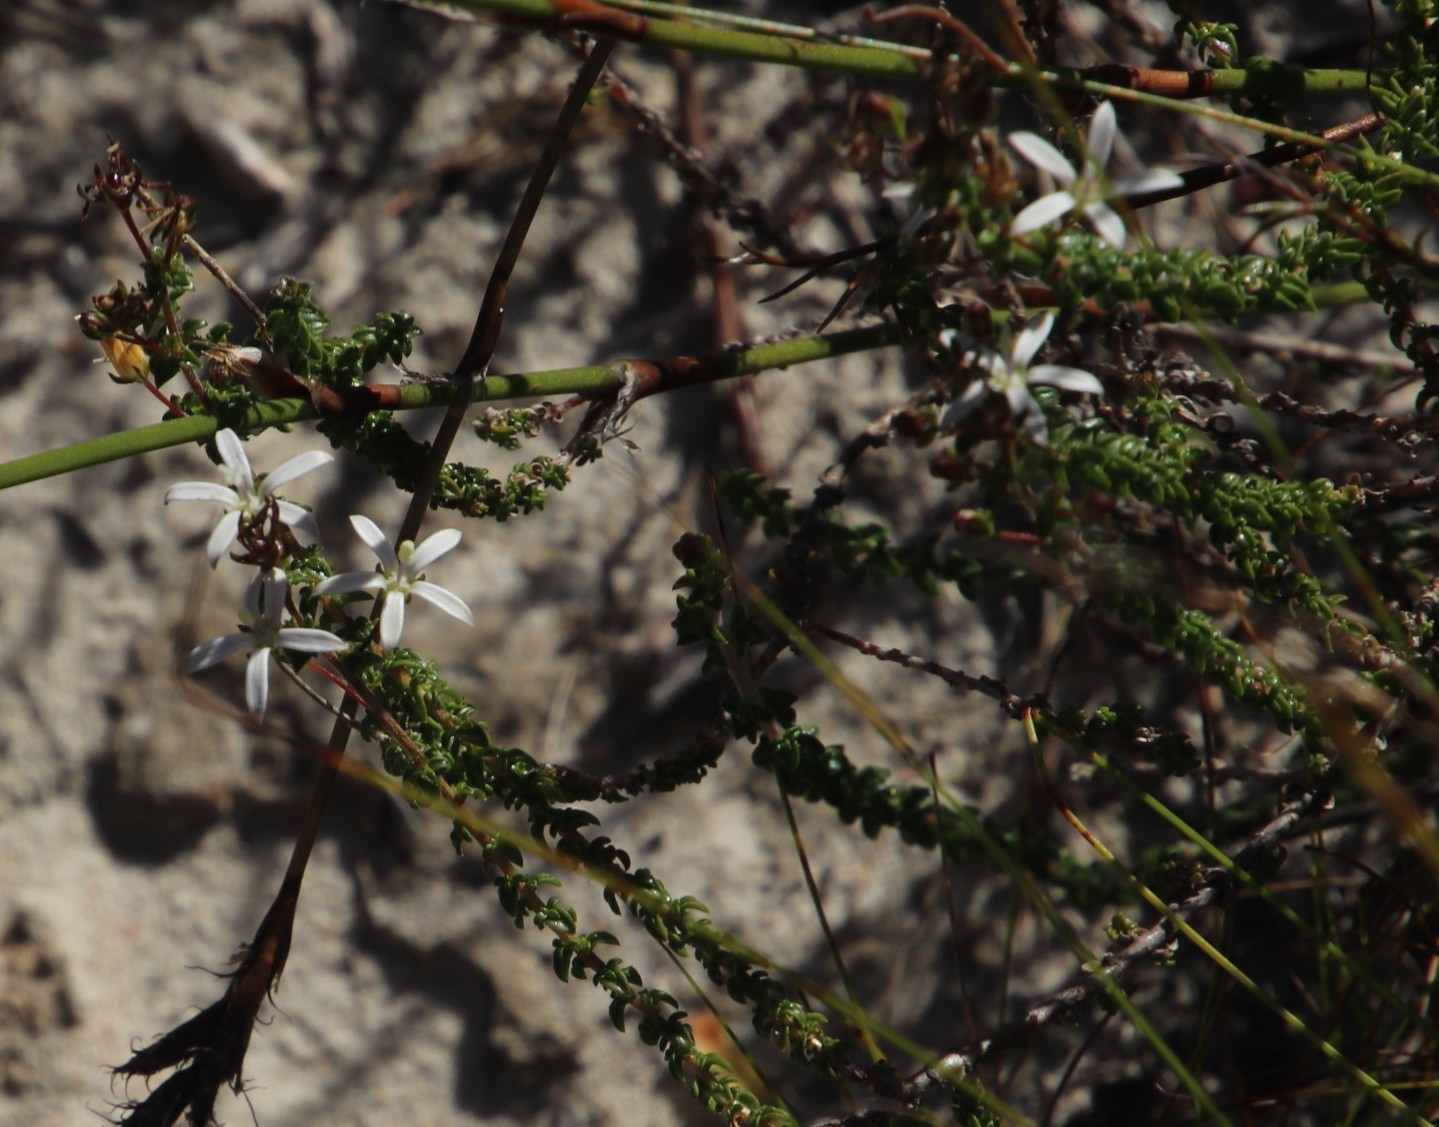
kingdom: Plantae
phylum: Tracheophyta
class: Magnoliopsida
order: Asterales
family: Campanulaceae
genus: Wahlenbergia
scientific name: Wahlenbergia tenella
